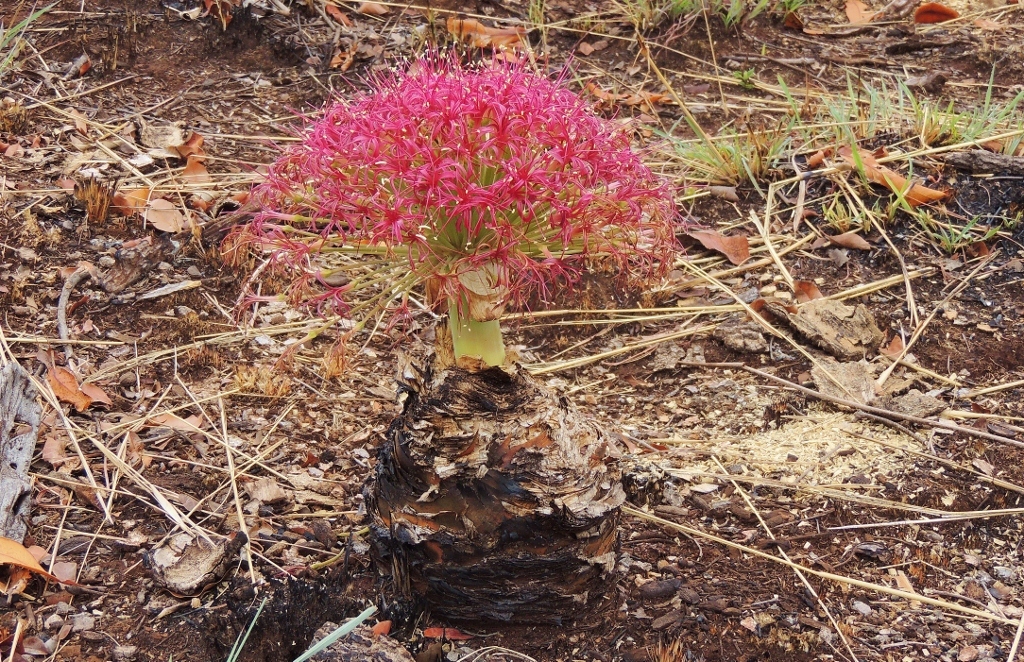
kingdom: Plantae
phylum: Tracheophyta
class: Liliopsida
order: Asparagales
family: Amaryllidaceae
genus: Boophone
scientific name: Boophone disticha
